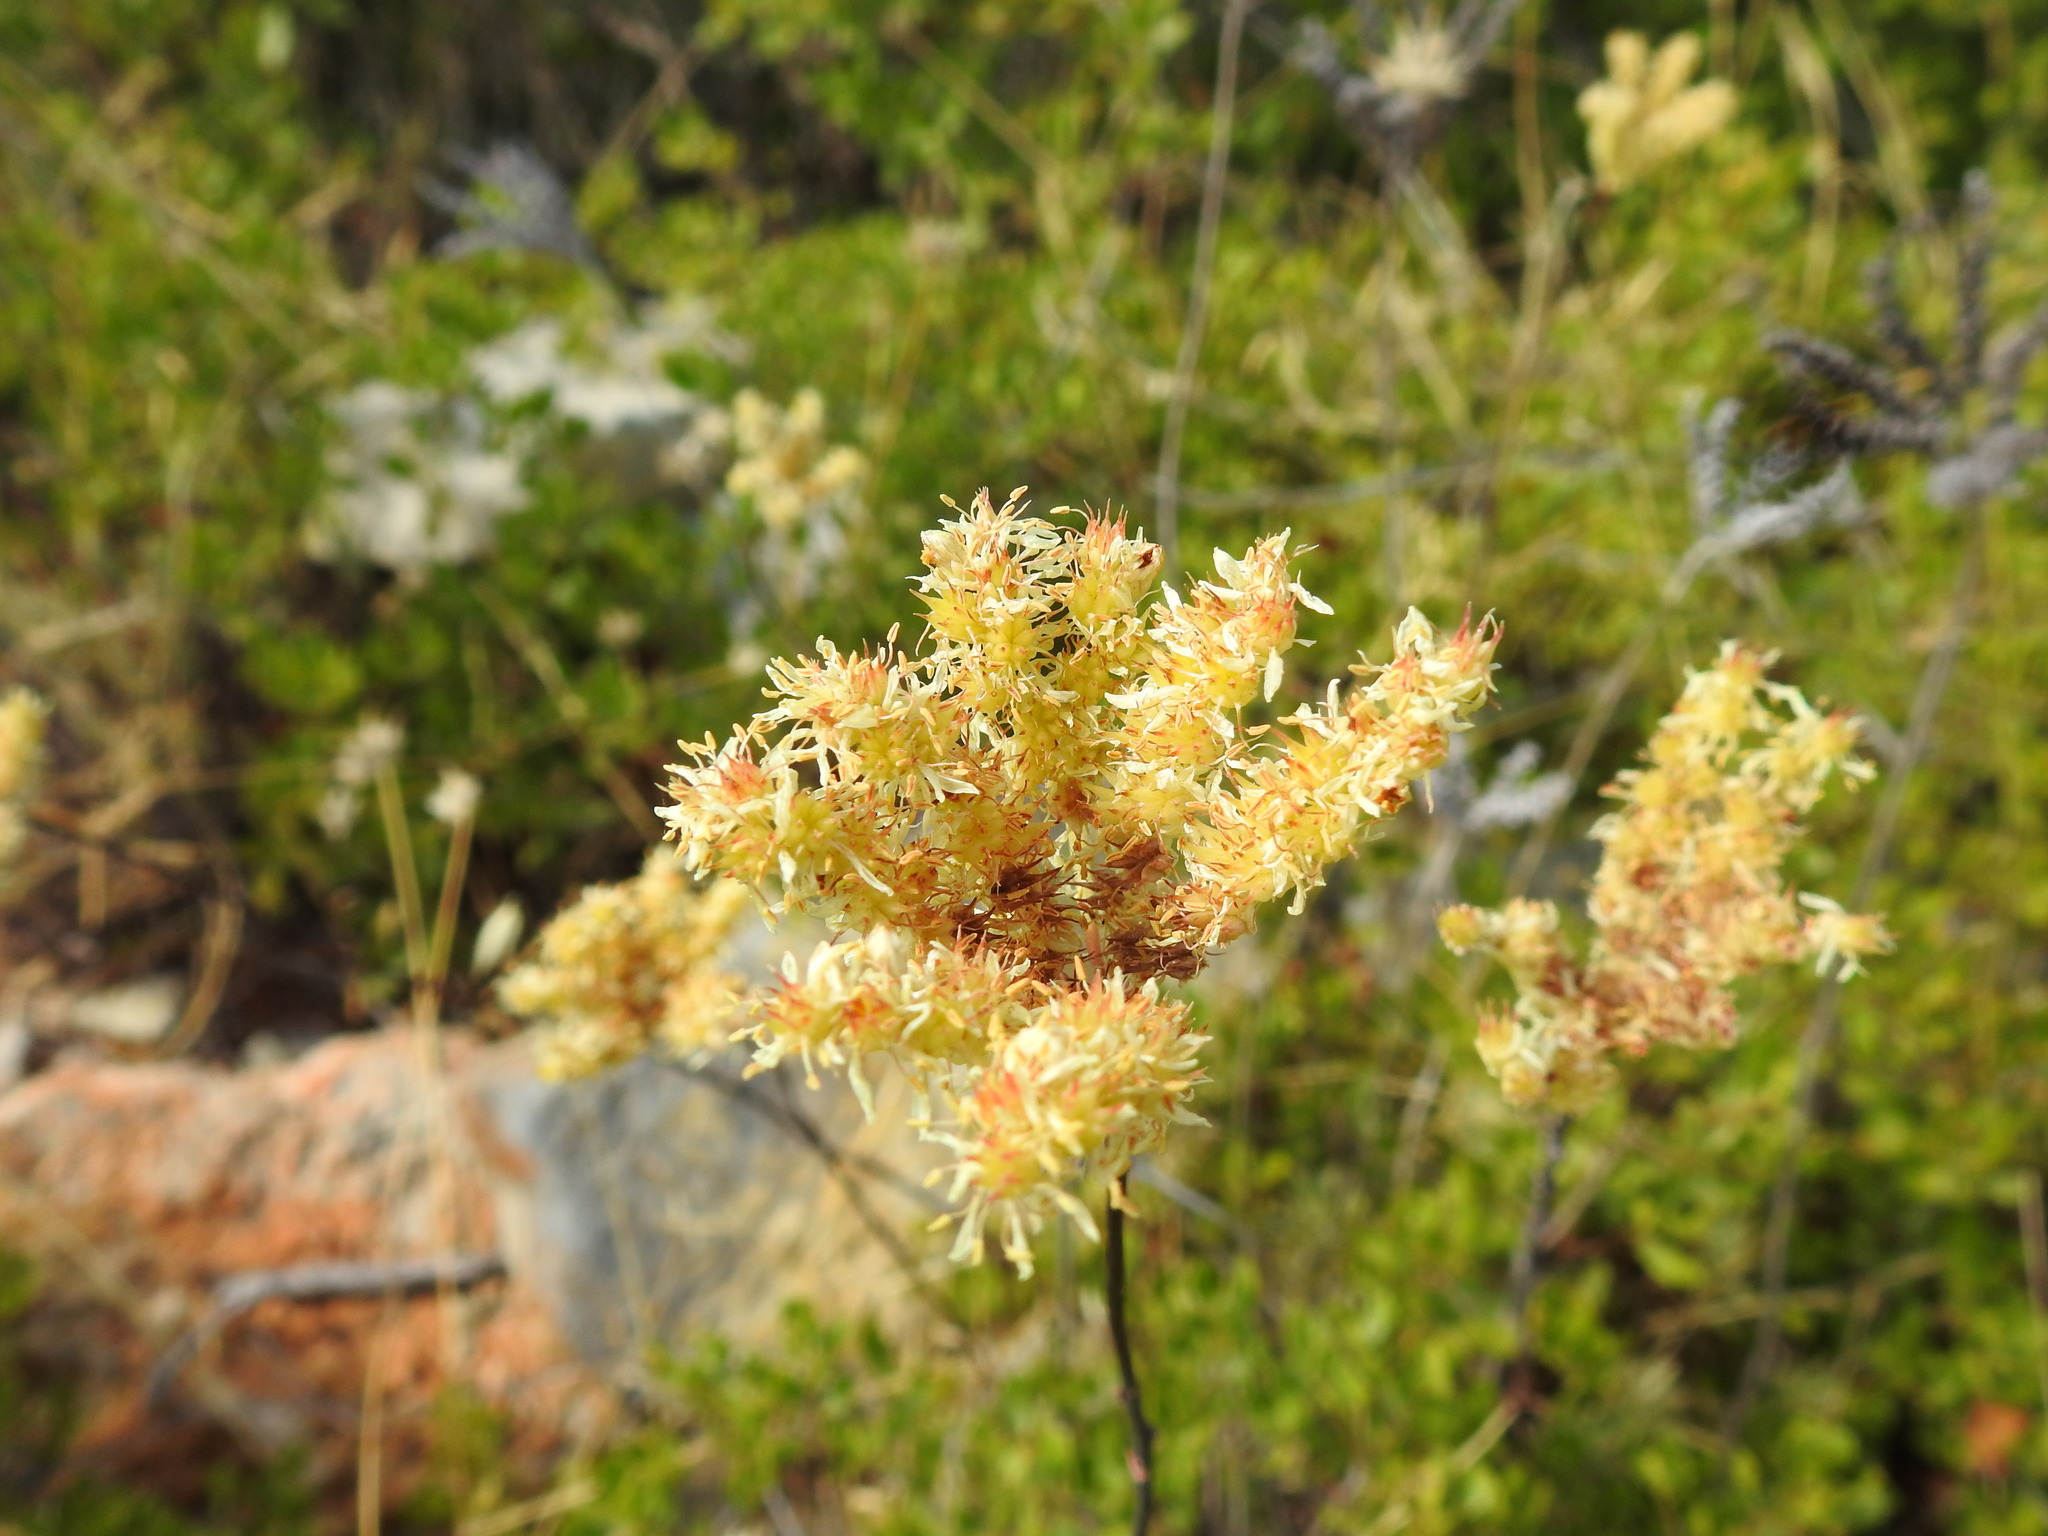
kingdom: Plantae
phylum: Tracheophyta
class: Magnoliopsida
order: Saxifragales
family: Crassulaceae
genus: Petrosedum
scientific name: Petrosedum sediforme
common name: Pale stonecrop
